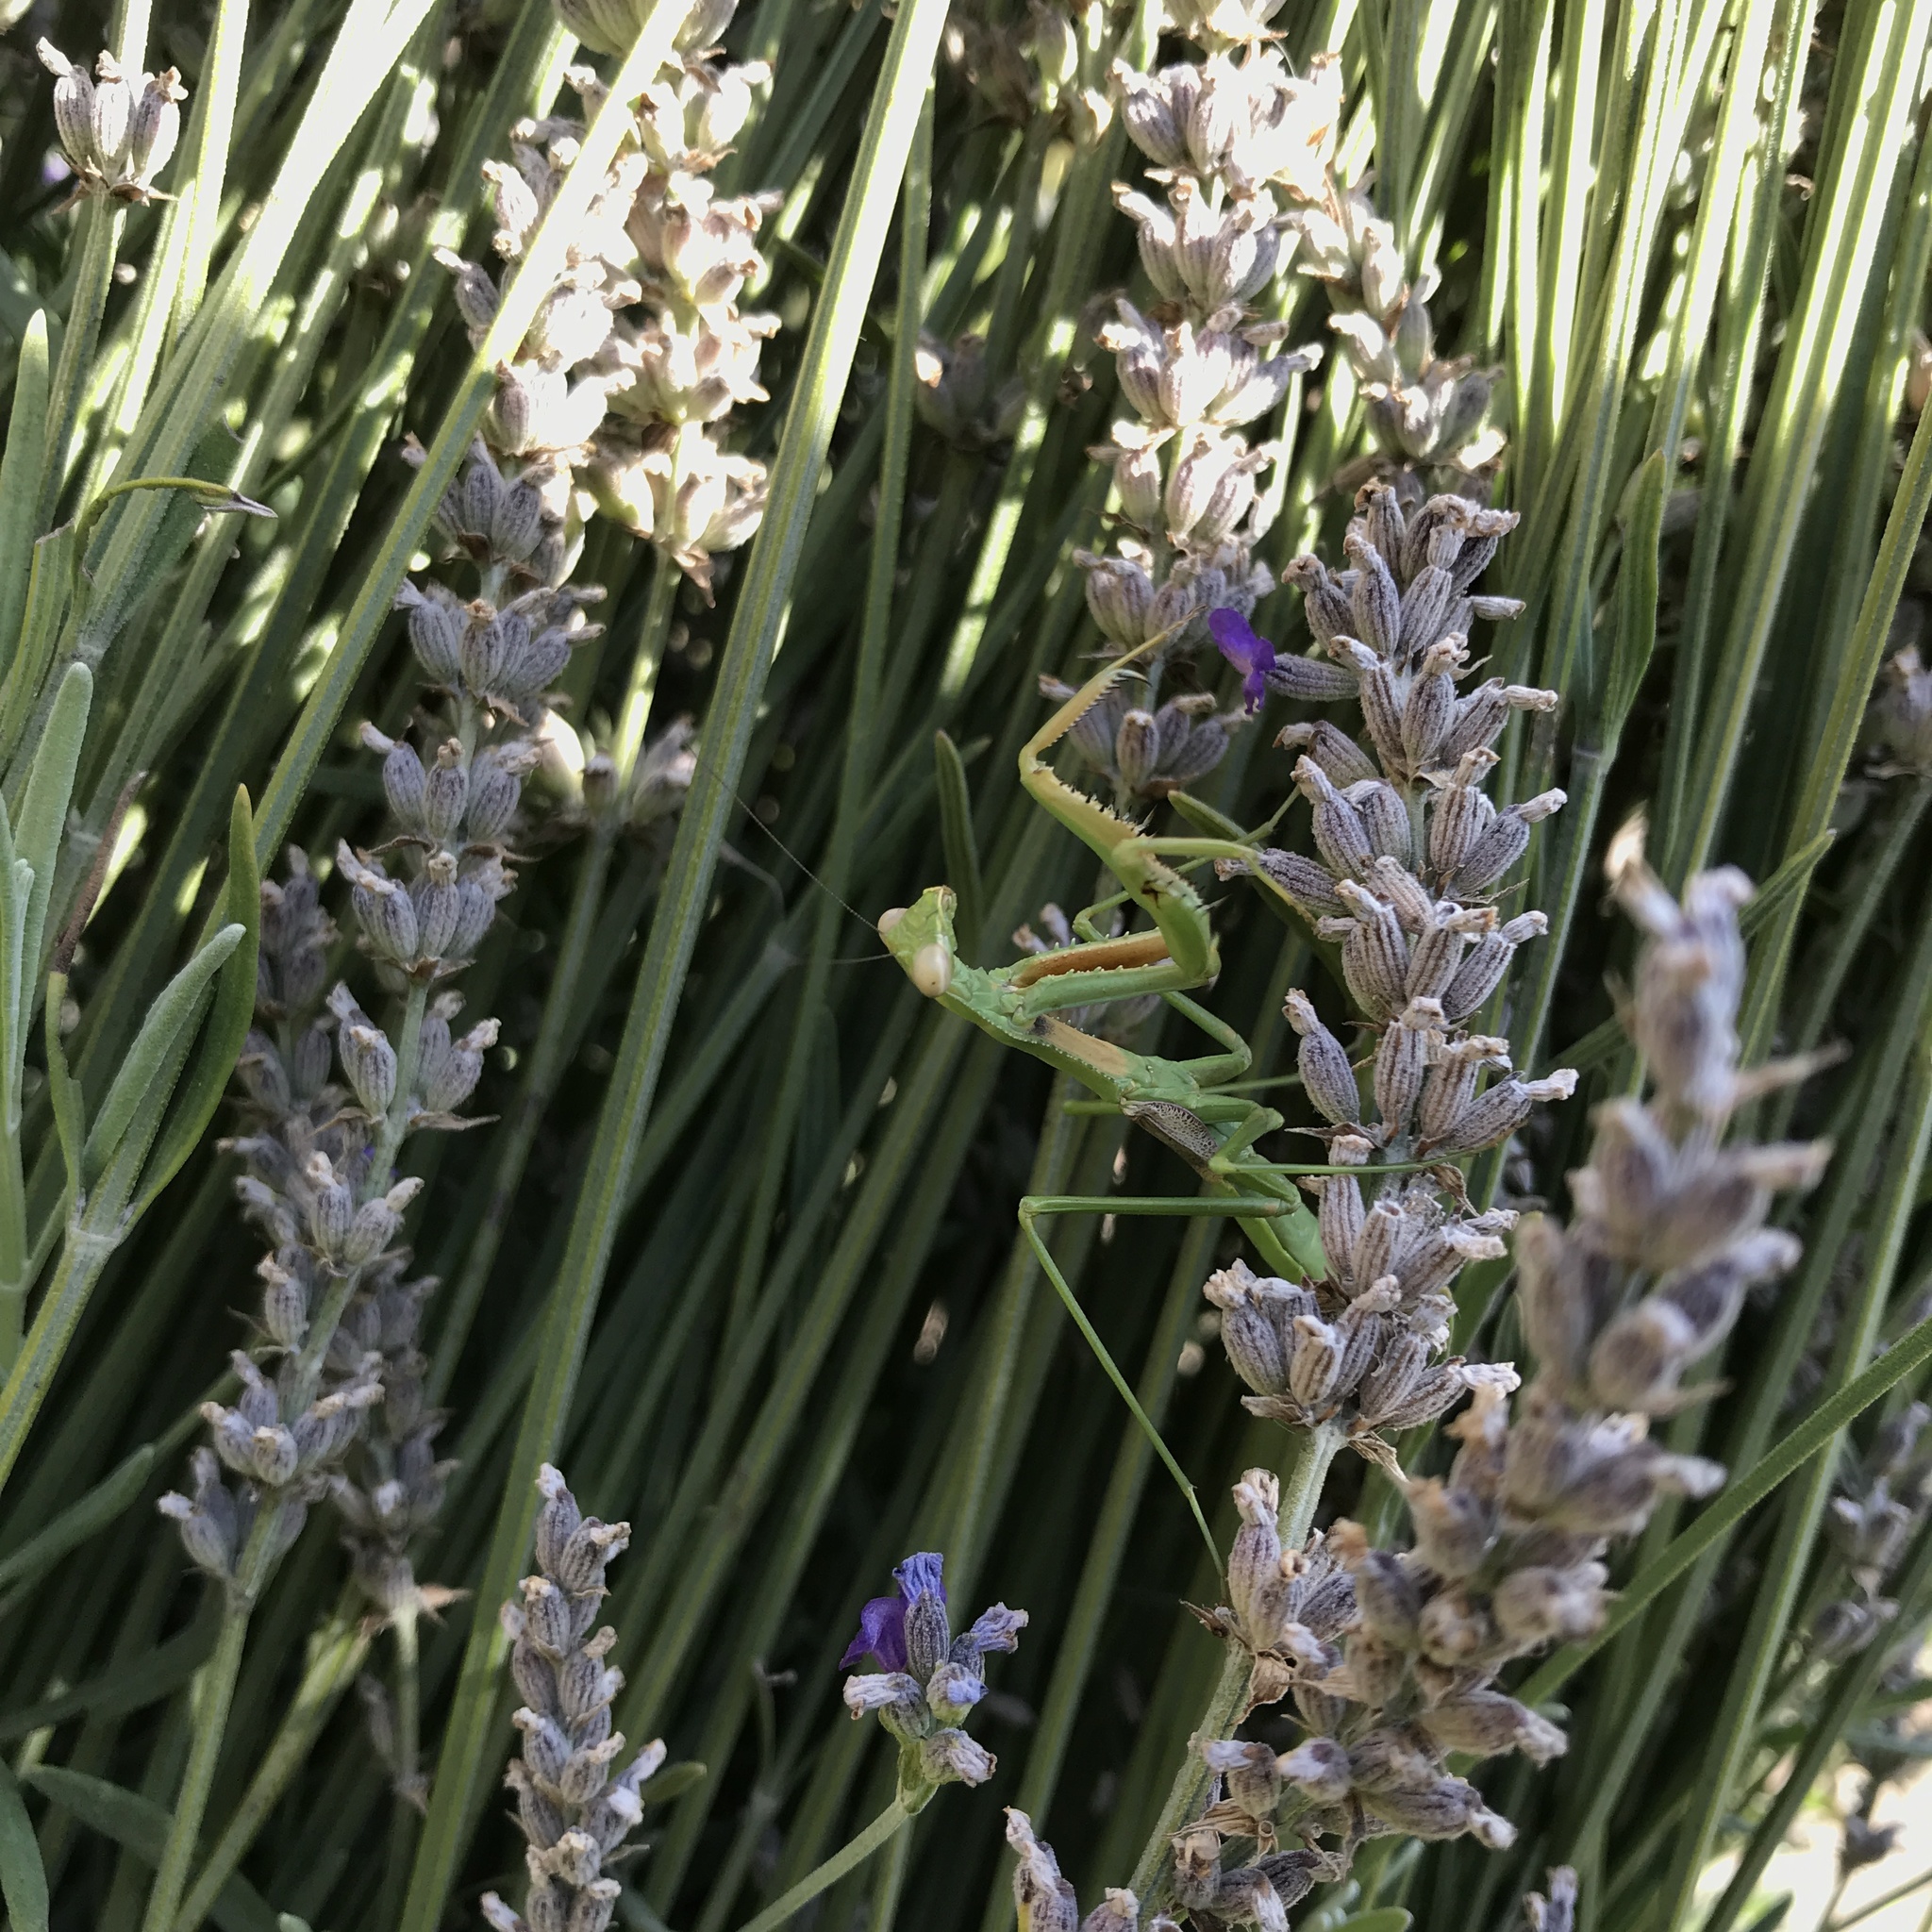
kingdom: Animalia
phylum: Arthropoda
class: Insecta
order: Mantodea
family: Coptopterygidae
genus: Coptopteryx
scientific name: Coptopteryx gayi
